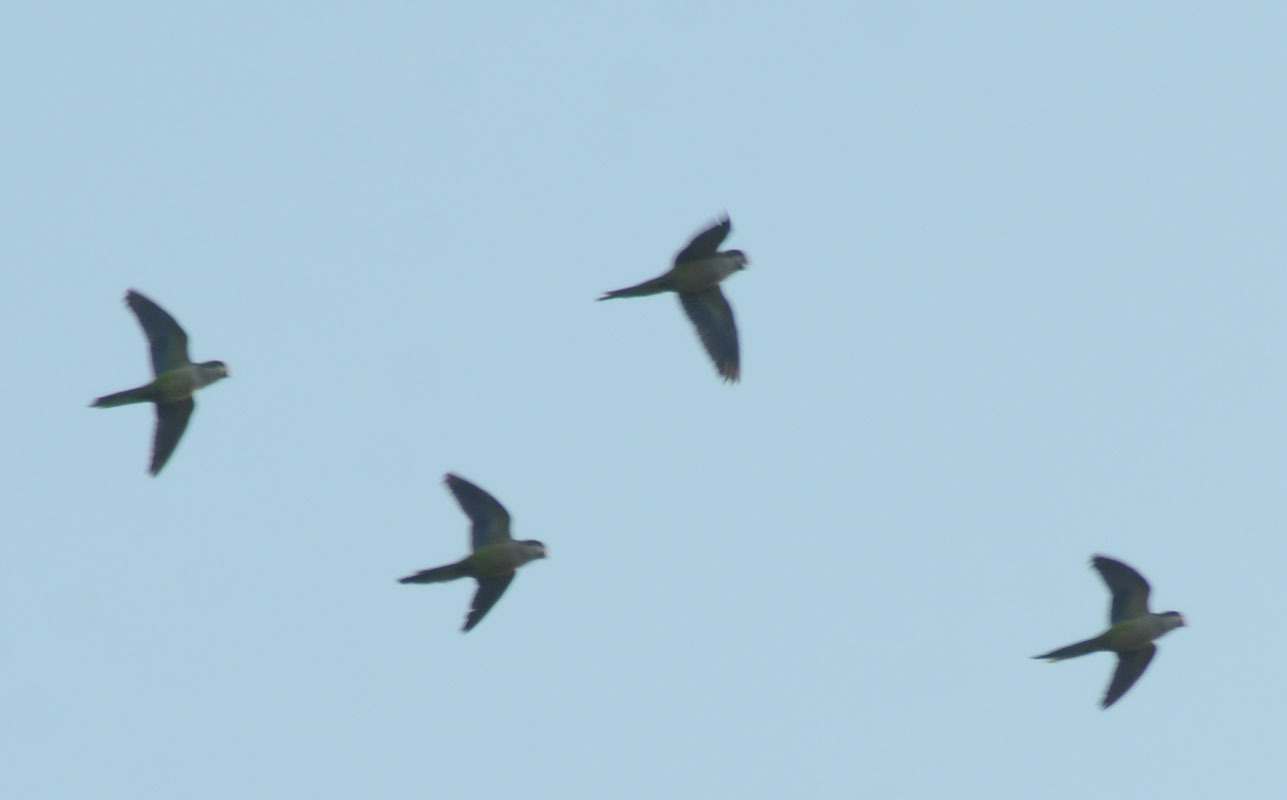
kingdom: Animalia
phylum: Chordata
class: Aves
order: Psittaciformes
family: Psittacidae
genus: Myiopsitta
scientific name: Myiopsitta monachus
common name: Monk parakeet
